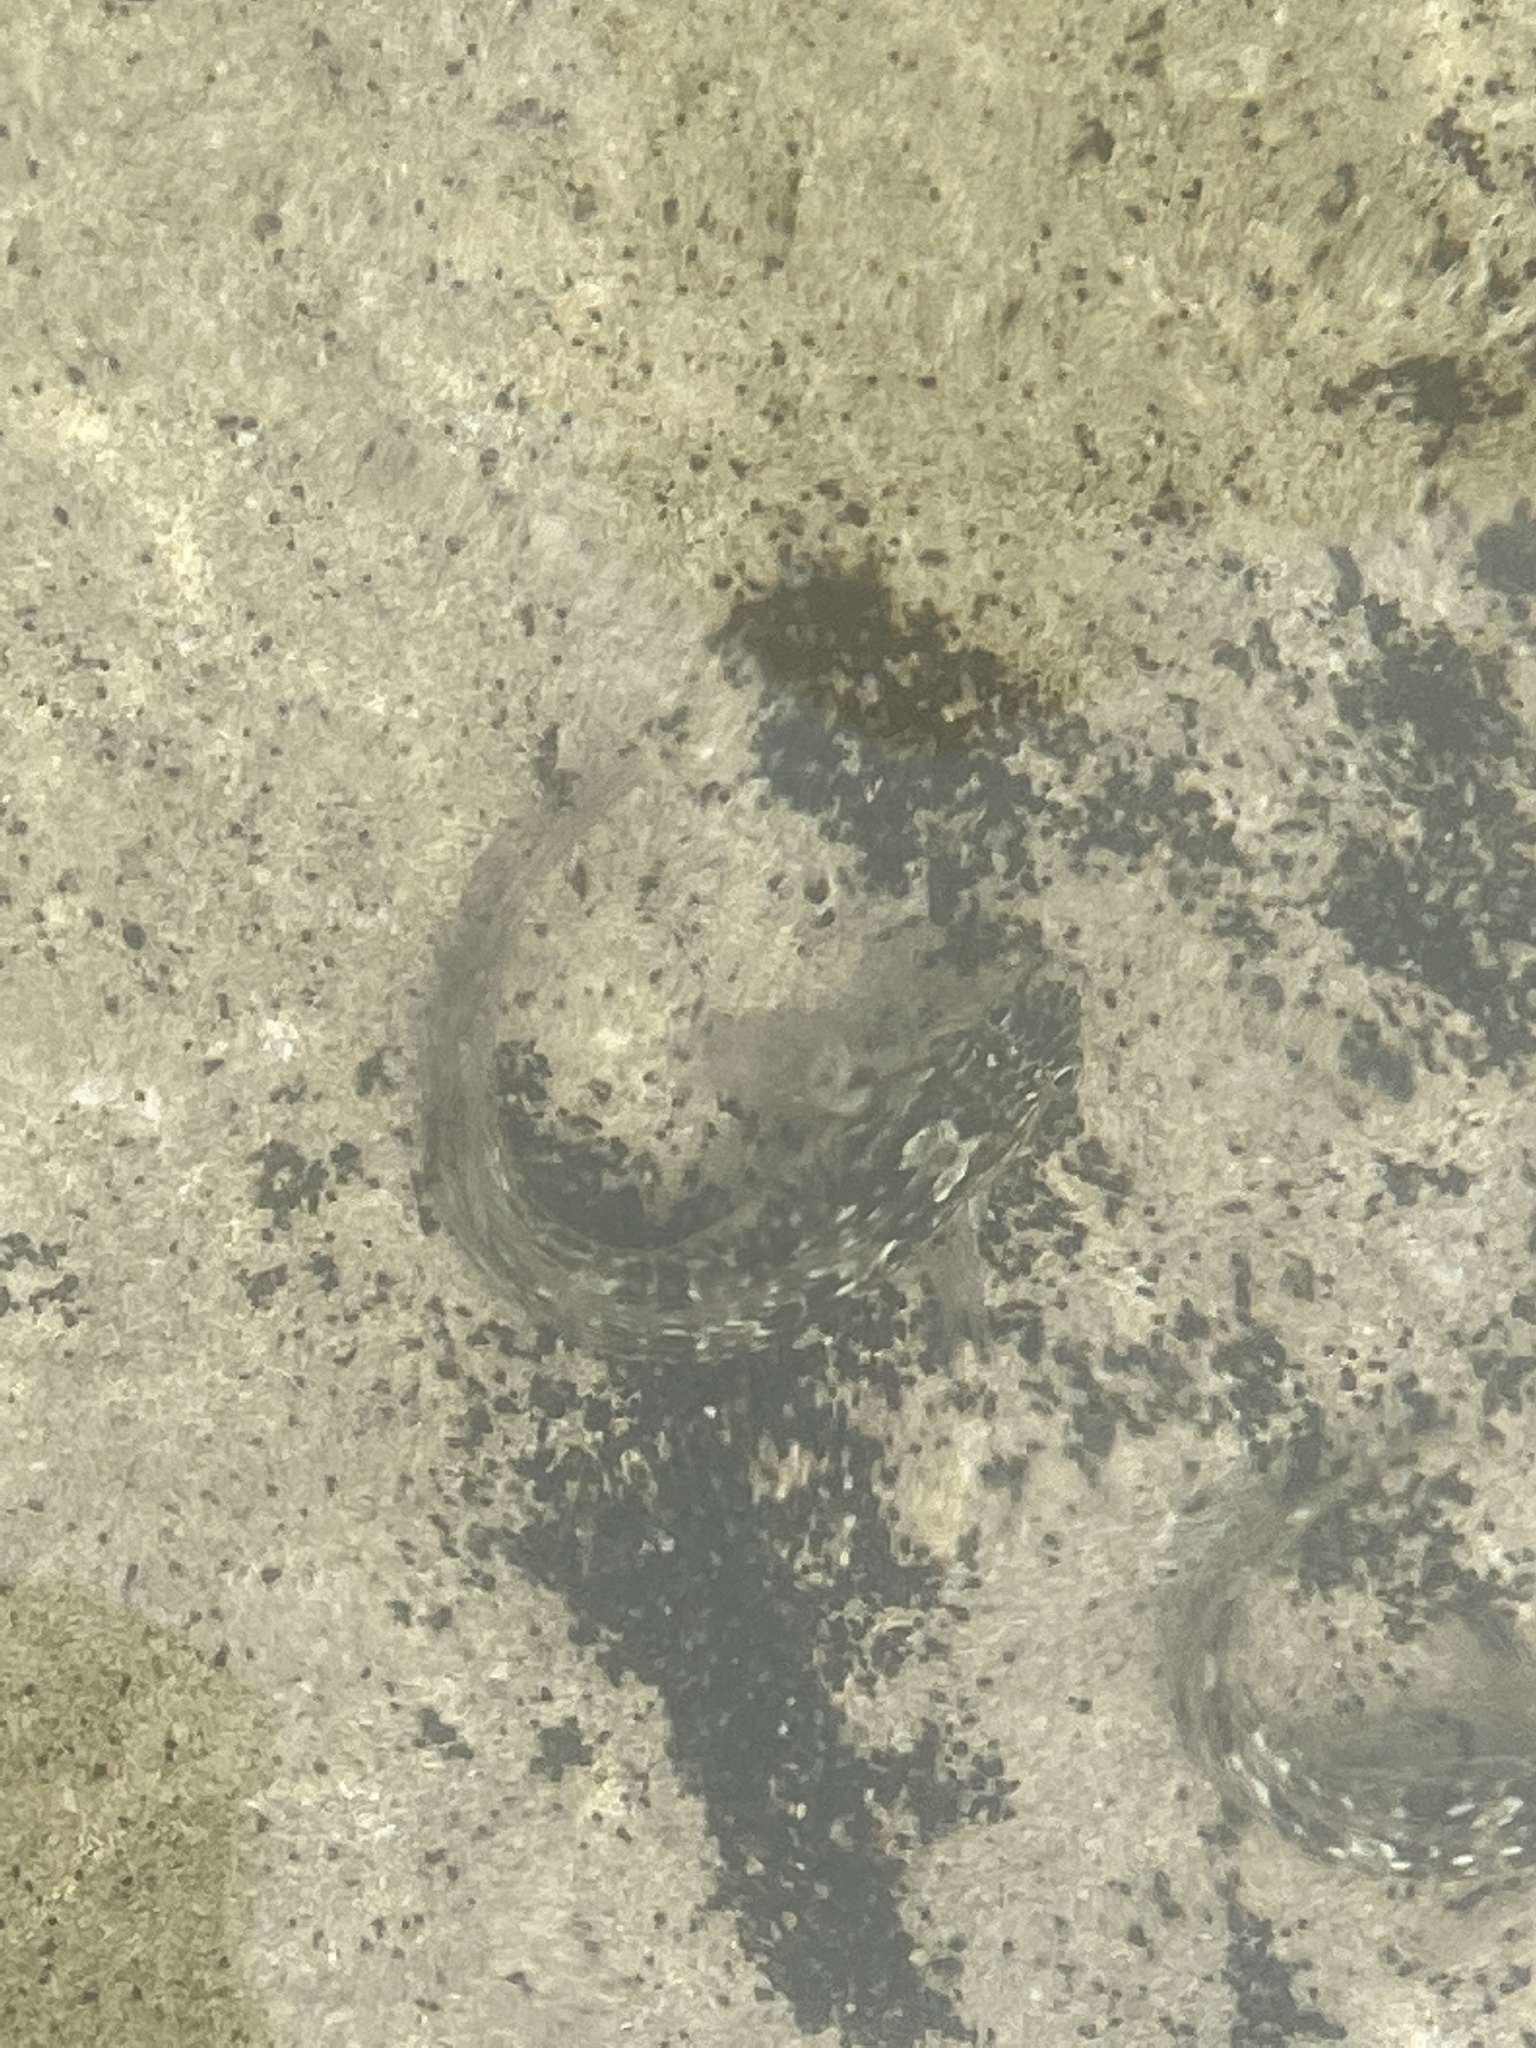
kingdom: Animalia
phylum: Chordata
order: Perciformes
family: Blenniidae
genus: Parablennius
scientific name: Parablennius parvicornis
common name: Rock-pool blenny
